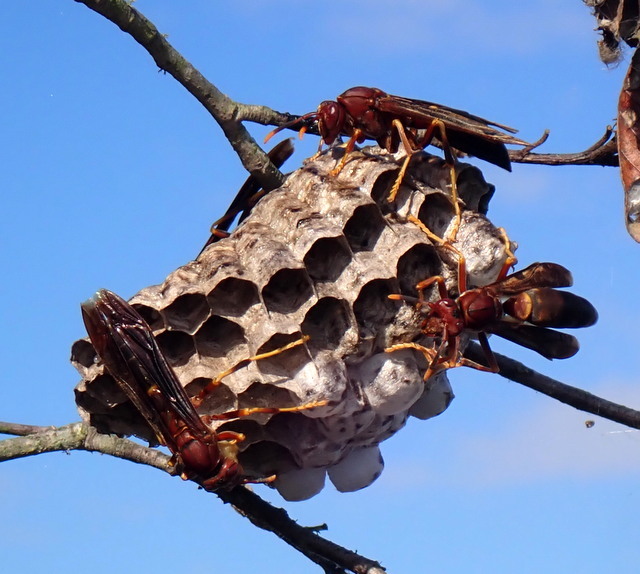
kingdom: Animalia
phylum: Arthropoda
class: Insecta
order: Hymenoptera
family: Eumenidae
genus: Polistes
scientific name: Polistes annularis
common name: Ringed paper wasp
